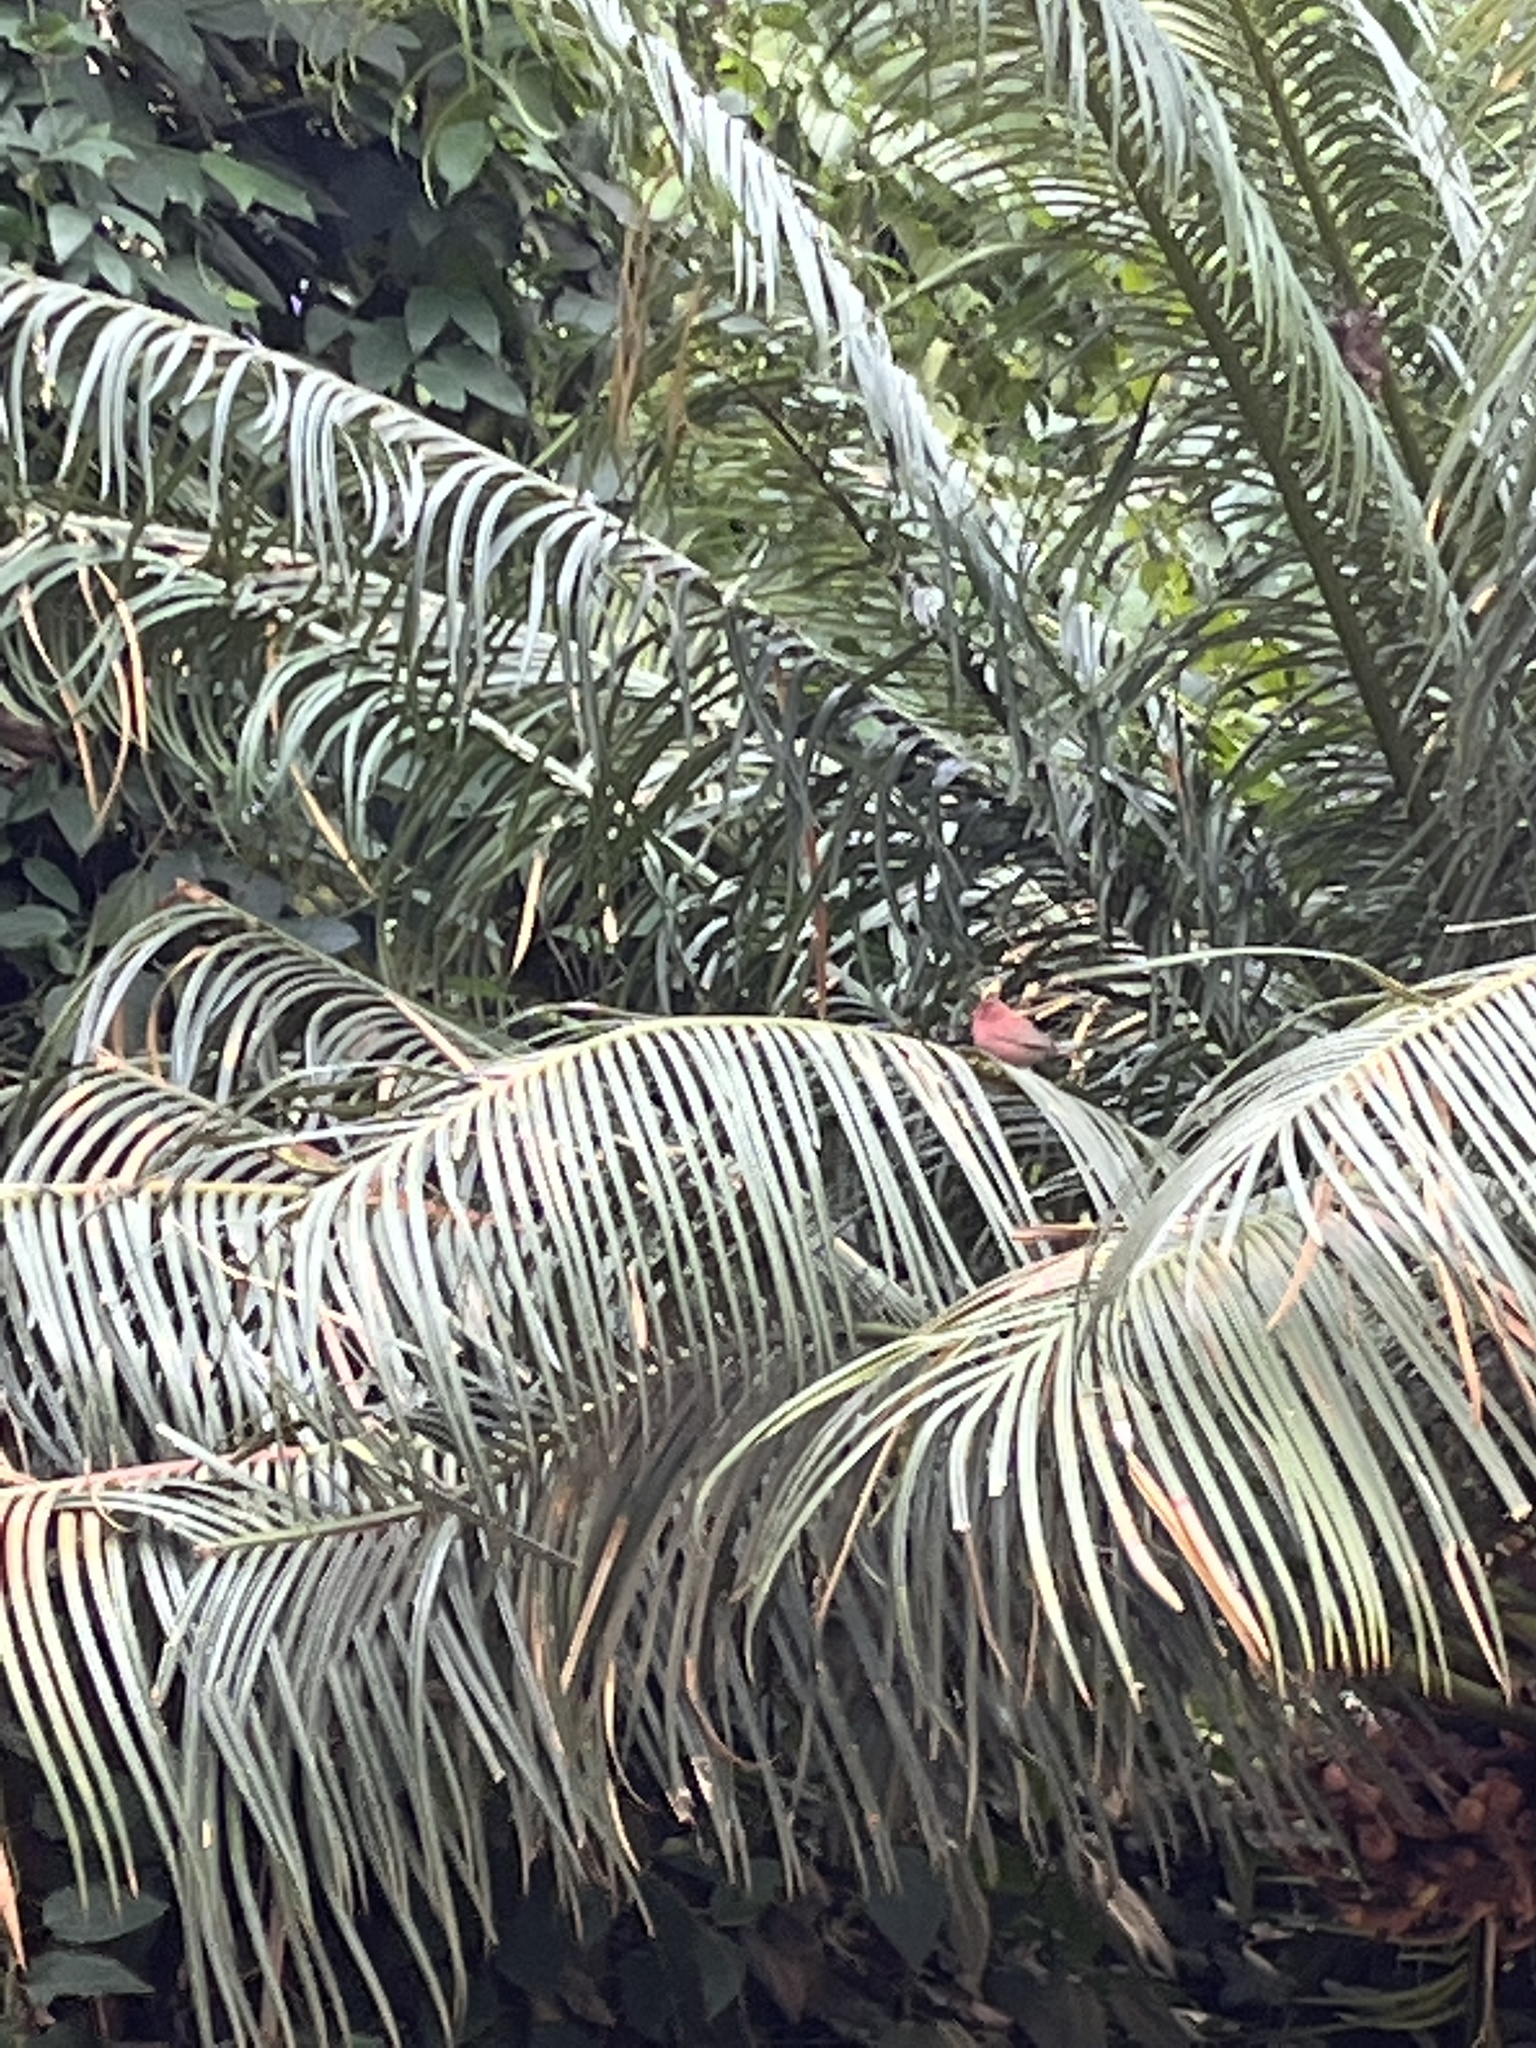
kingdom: Animalia
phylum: Chordata
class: Aves
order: Passeriformes
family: Estrildidae
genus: Lagonosticta
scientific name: Lagonosticta senegala
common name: Red-billed firefinch
